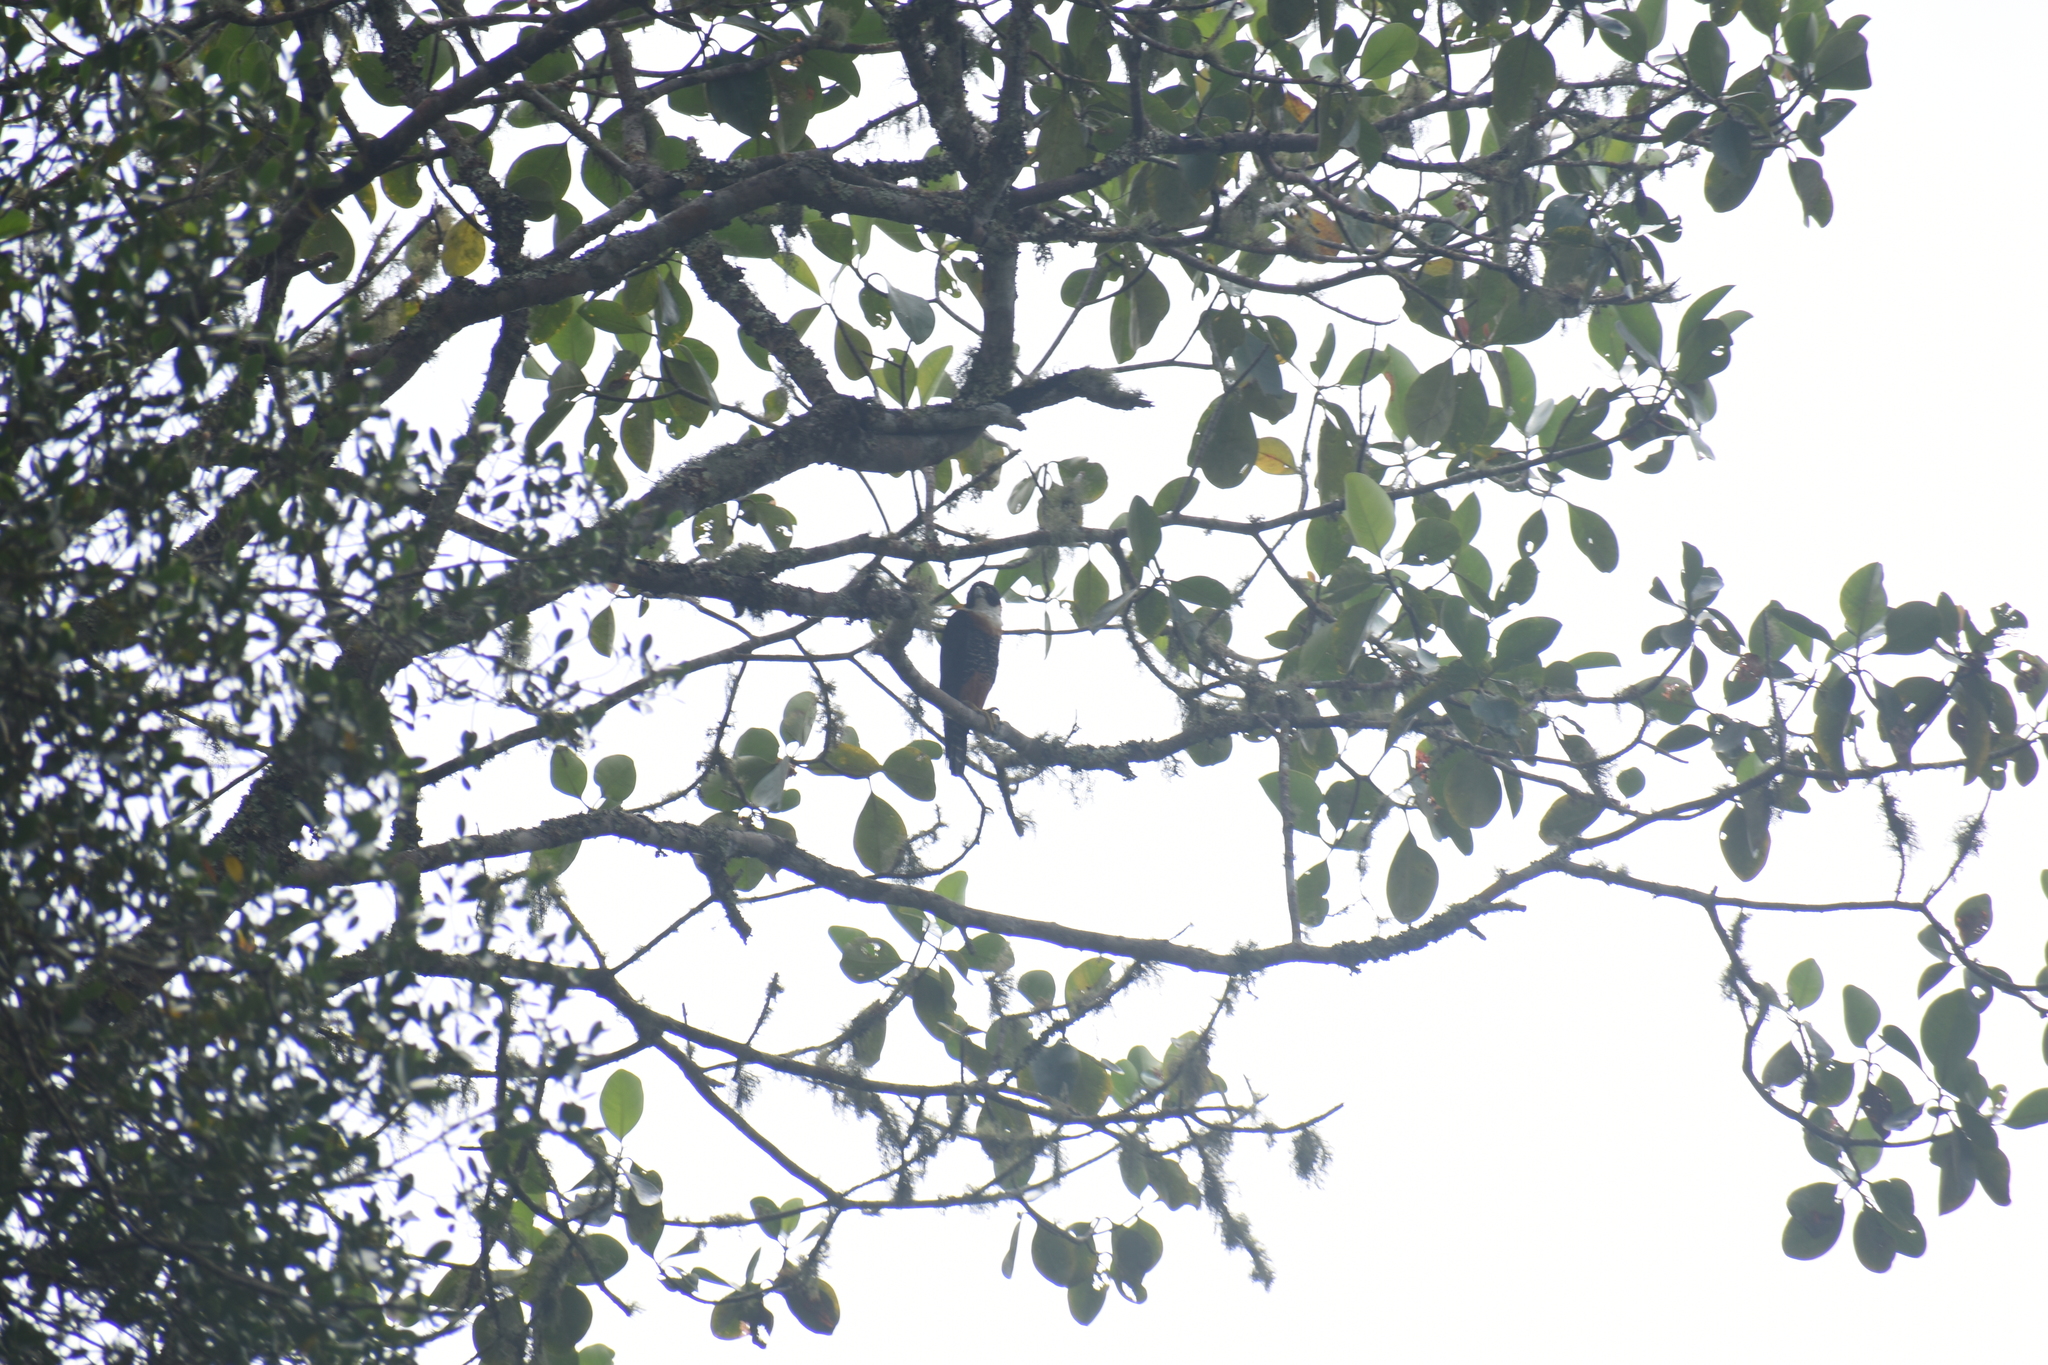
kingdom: Animalia
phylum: Chordata
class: Aves
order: Falconiformes
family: Falconidae
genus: Falco
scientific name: Falco deiroleucus
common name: Orange-breasted falcon
